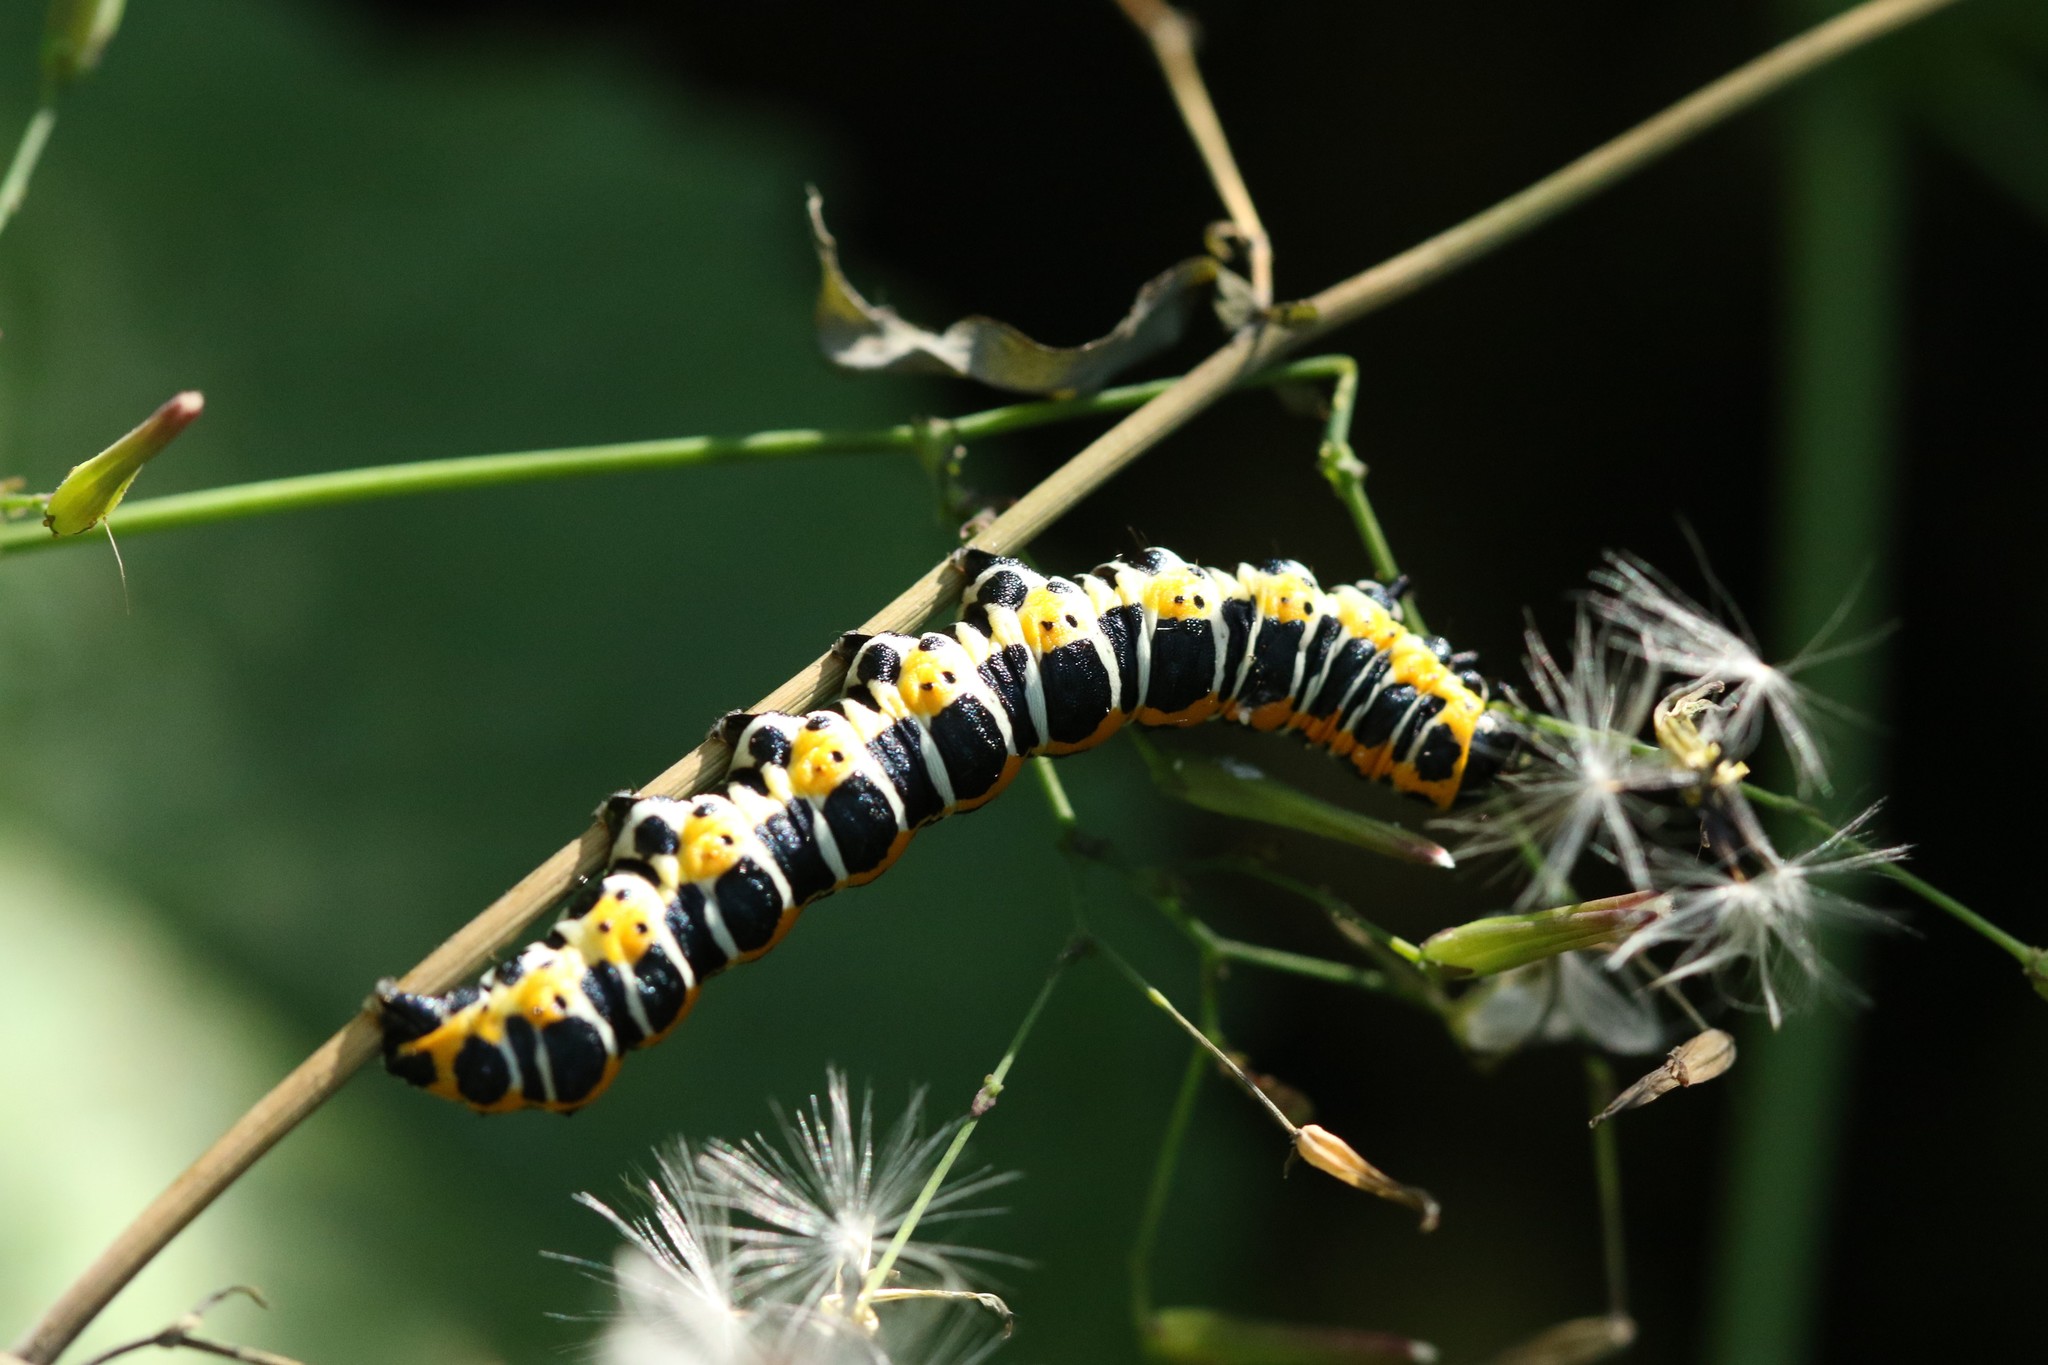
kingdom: Animalia
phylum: Arthropoda
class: Insecta
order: Lepidoptera
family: Noctuidae
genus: Cucullia
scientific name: Cucullia lactucae
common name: Lettuce shark
